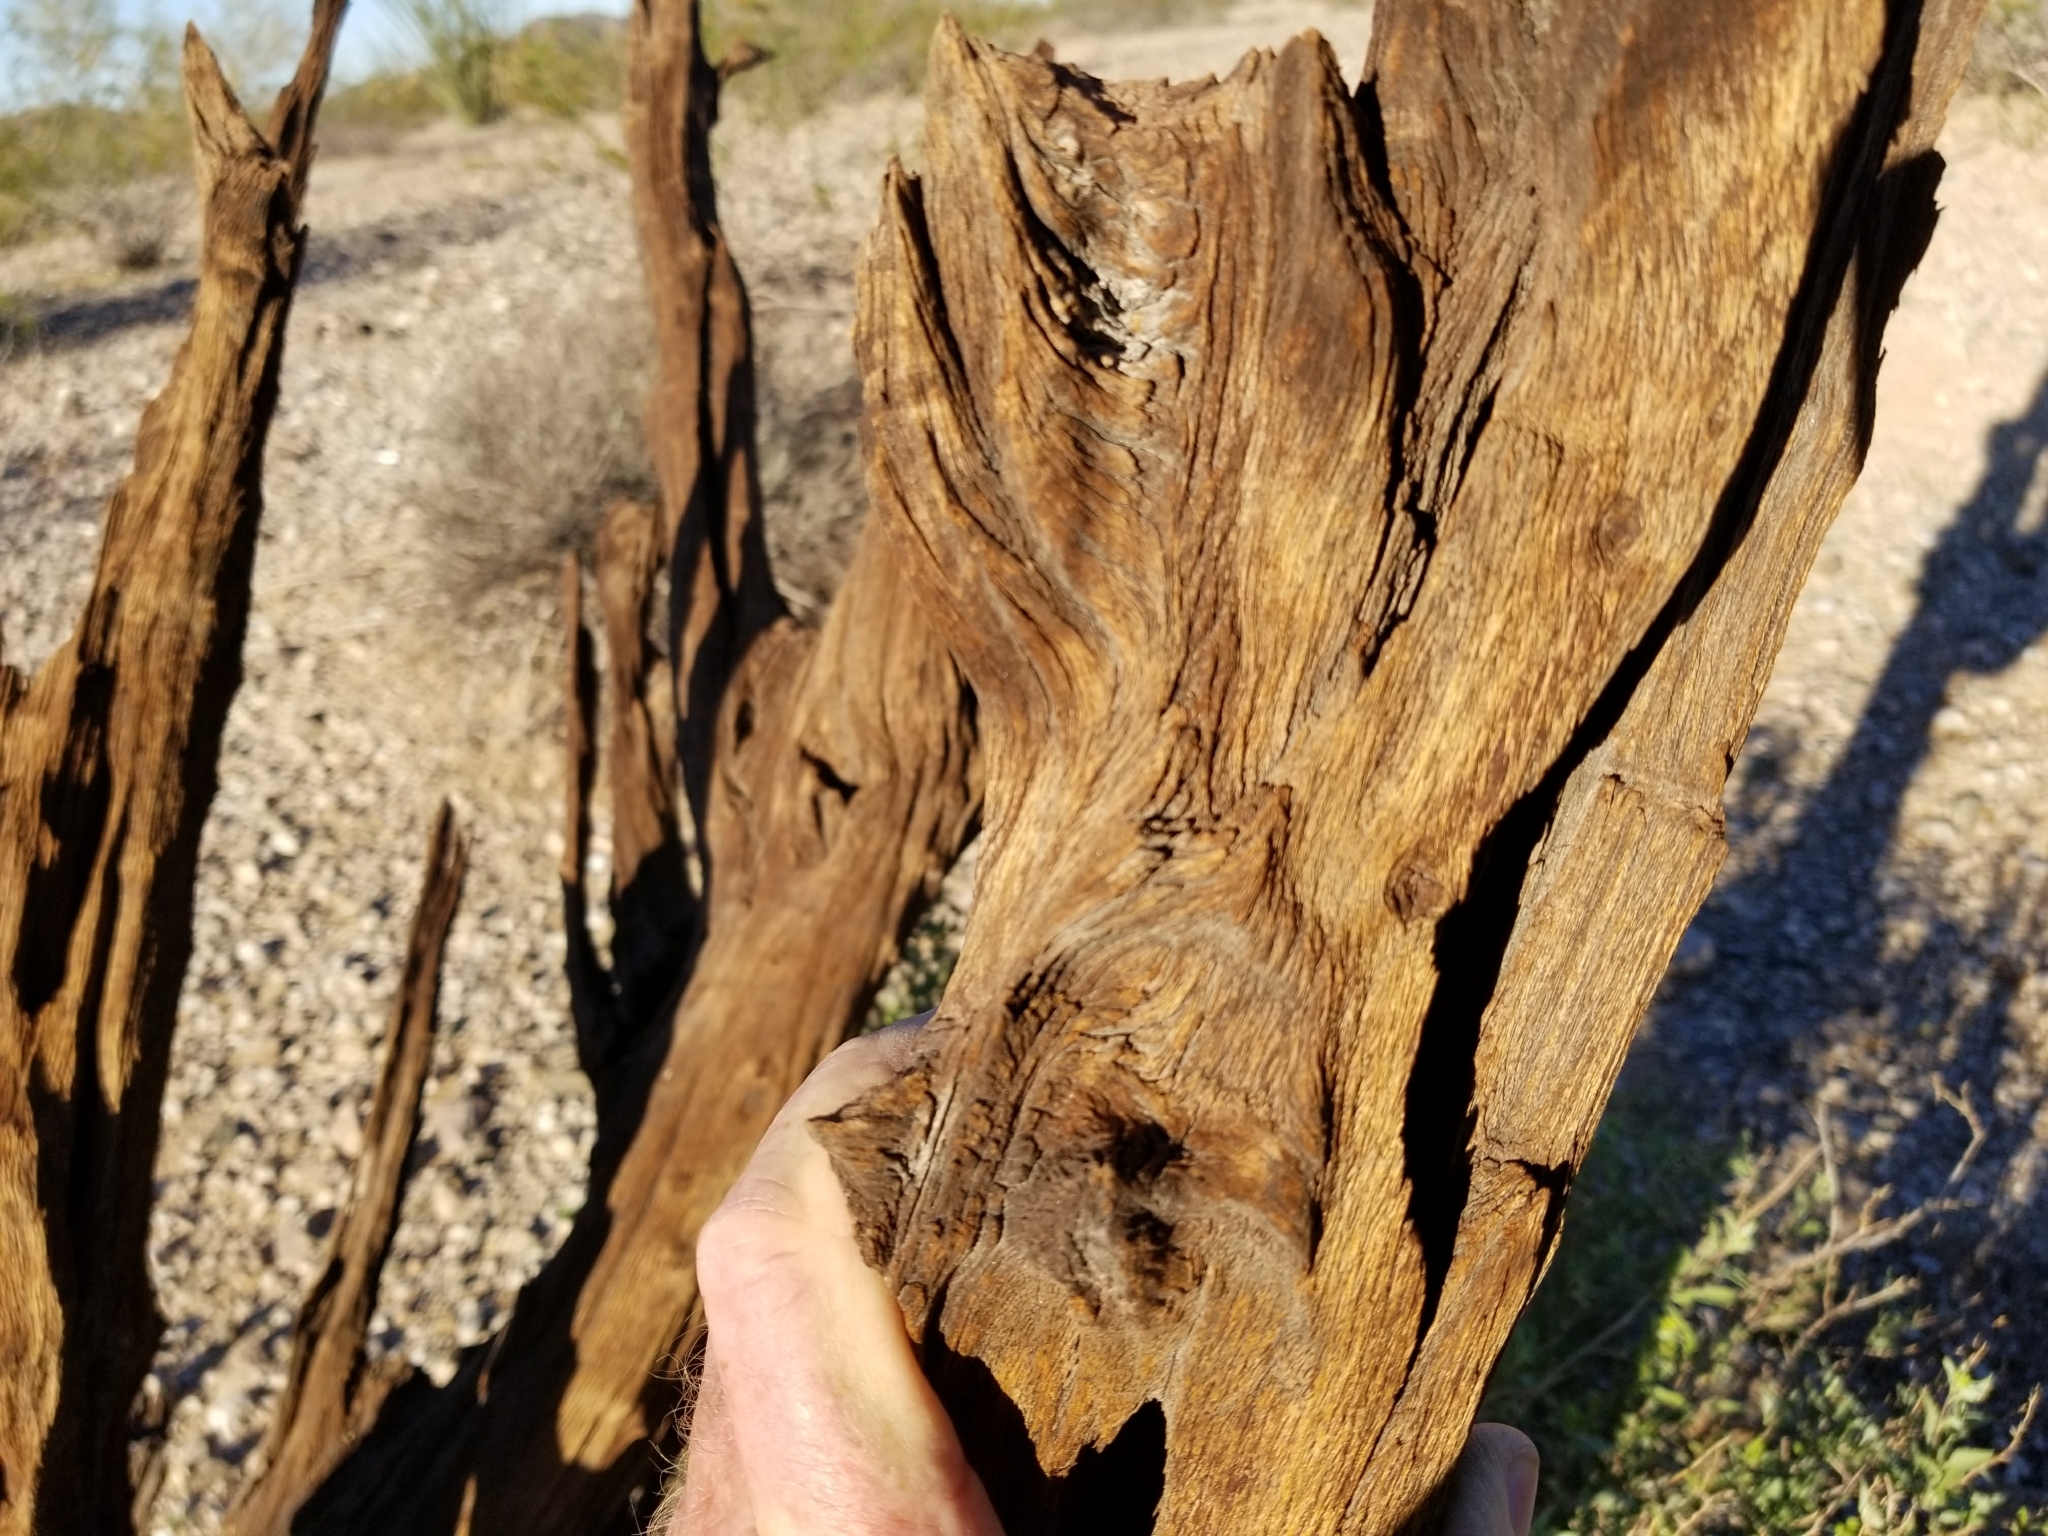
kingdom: Plantae
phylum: Tracheophyta
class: Magnoliopsida
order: Fabales
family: Fabaceae
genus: Olneya
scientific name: Olneya tesota
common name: Desert ironwood
